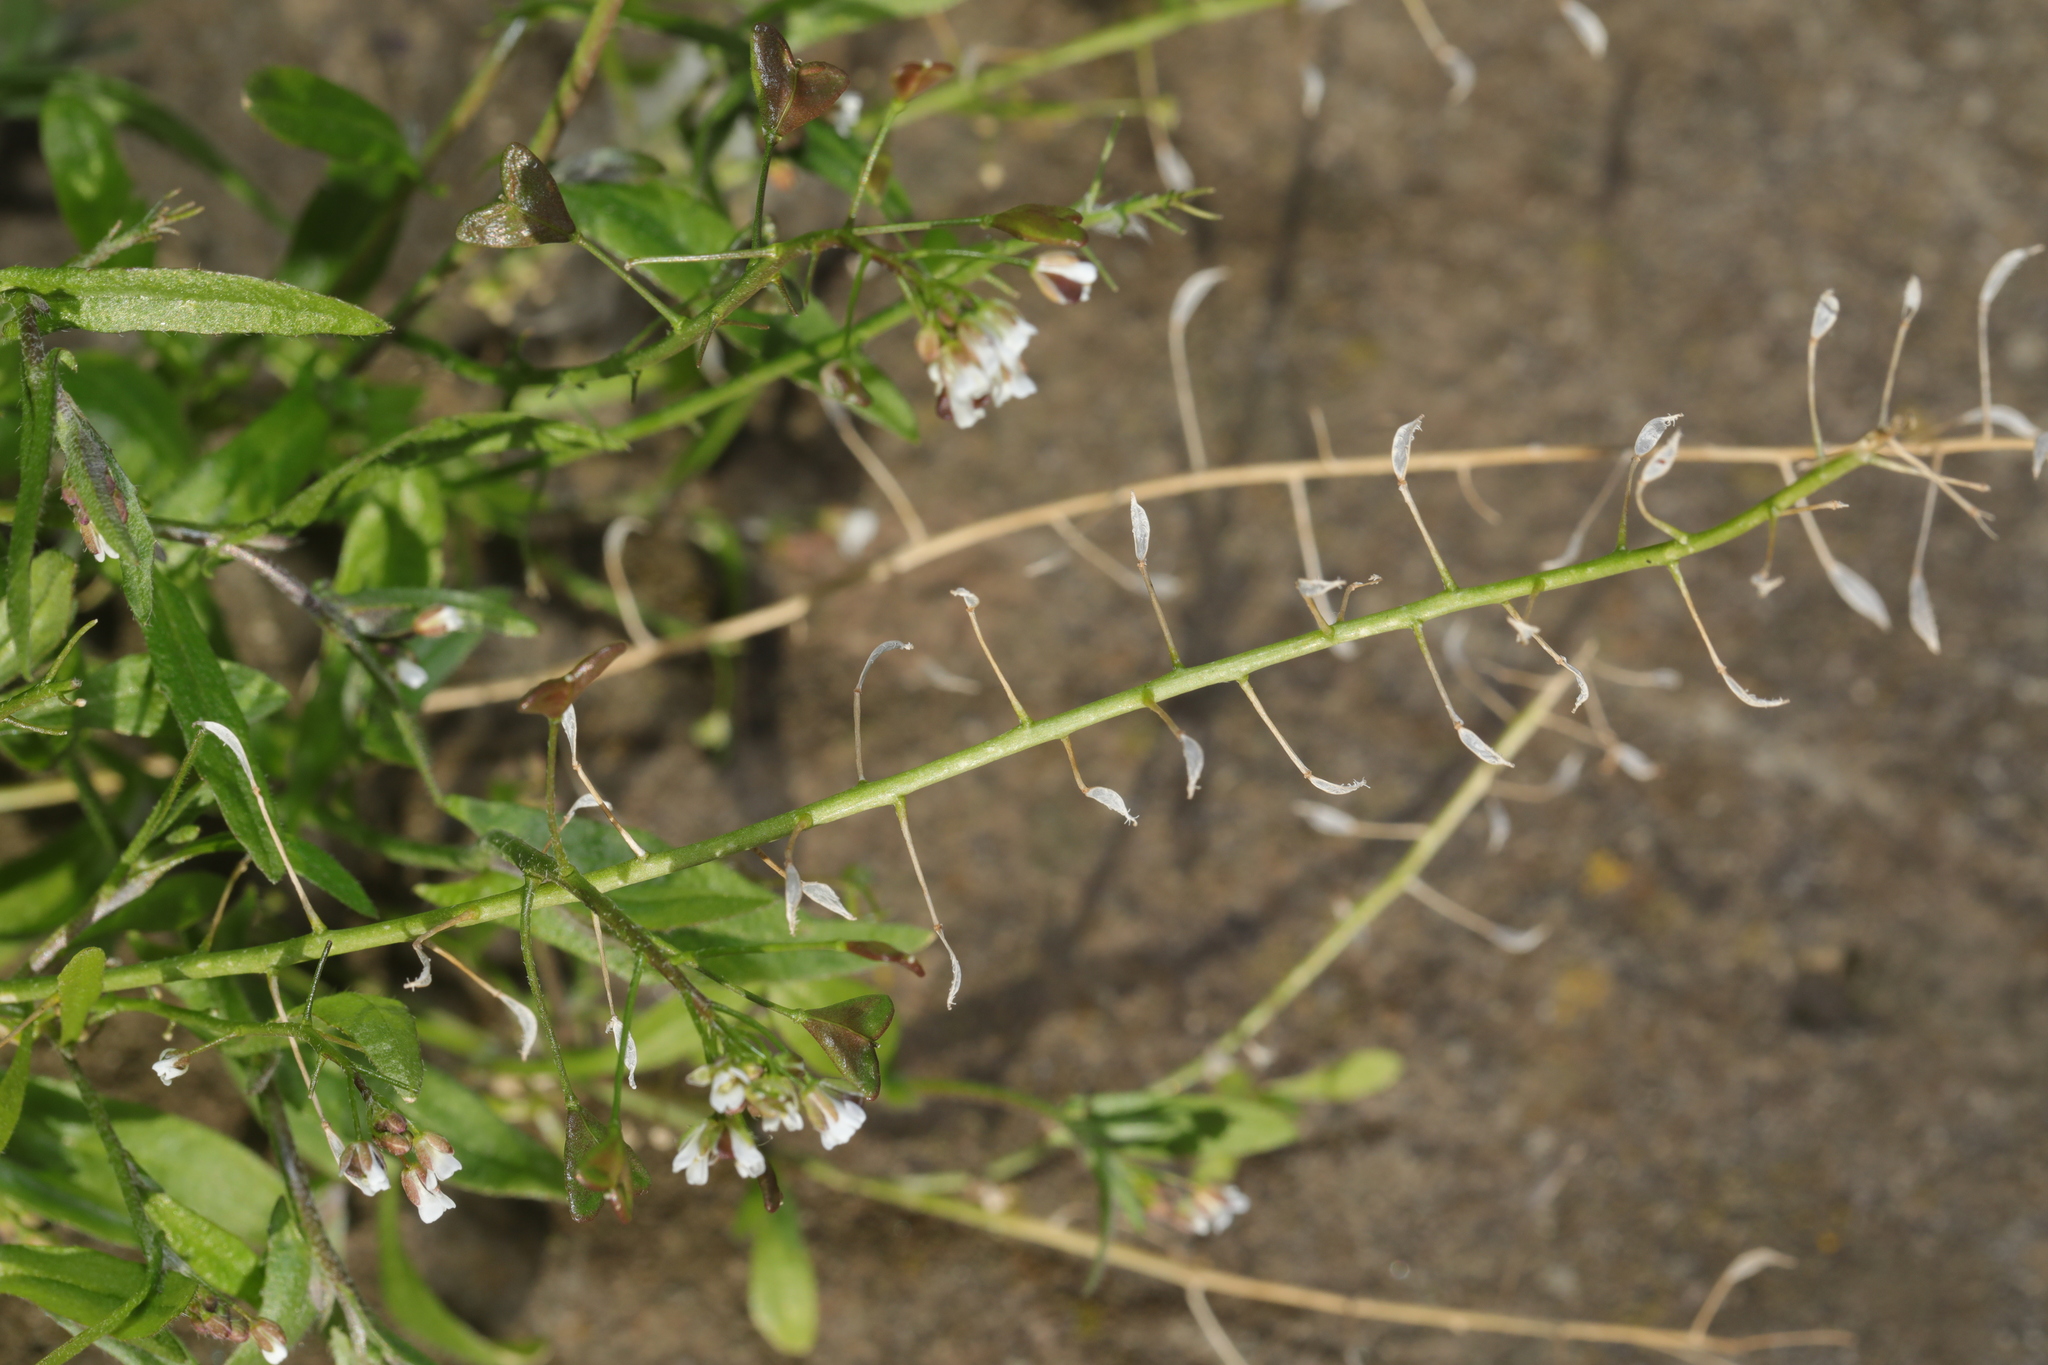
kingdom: Plantae
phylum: Tracheophyta
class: Magnoliopsida
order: Brassicales
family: Brassicaceae
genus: Capsella
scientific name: Capsella bursa-pastoris
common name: Shepherd's purse
